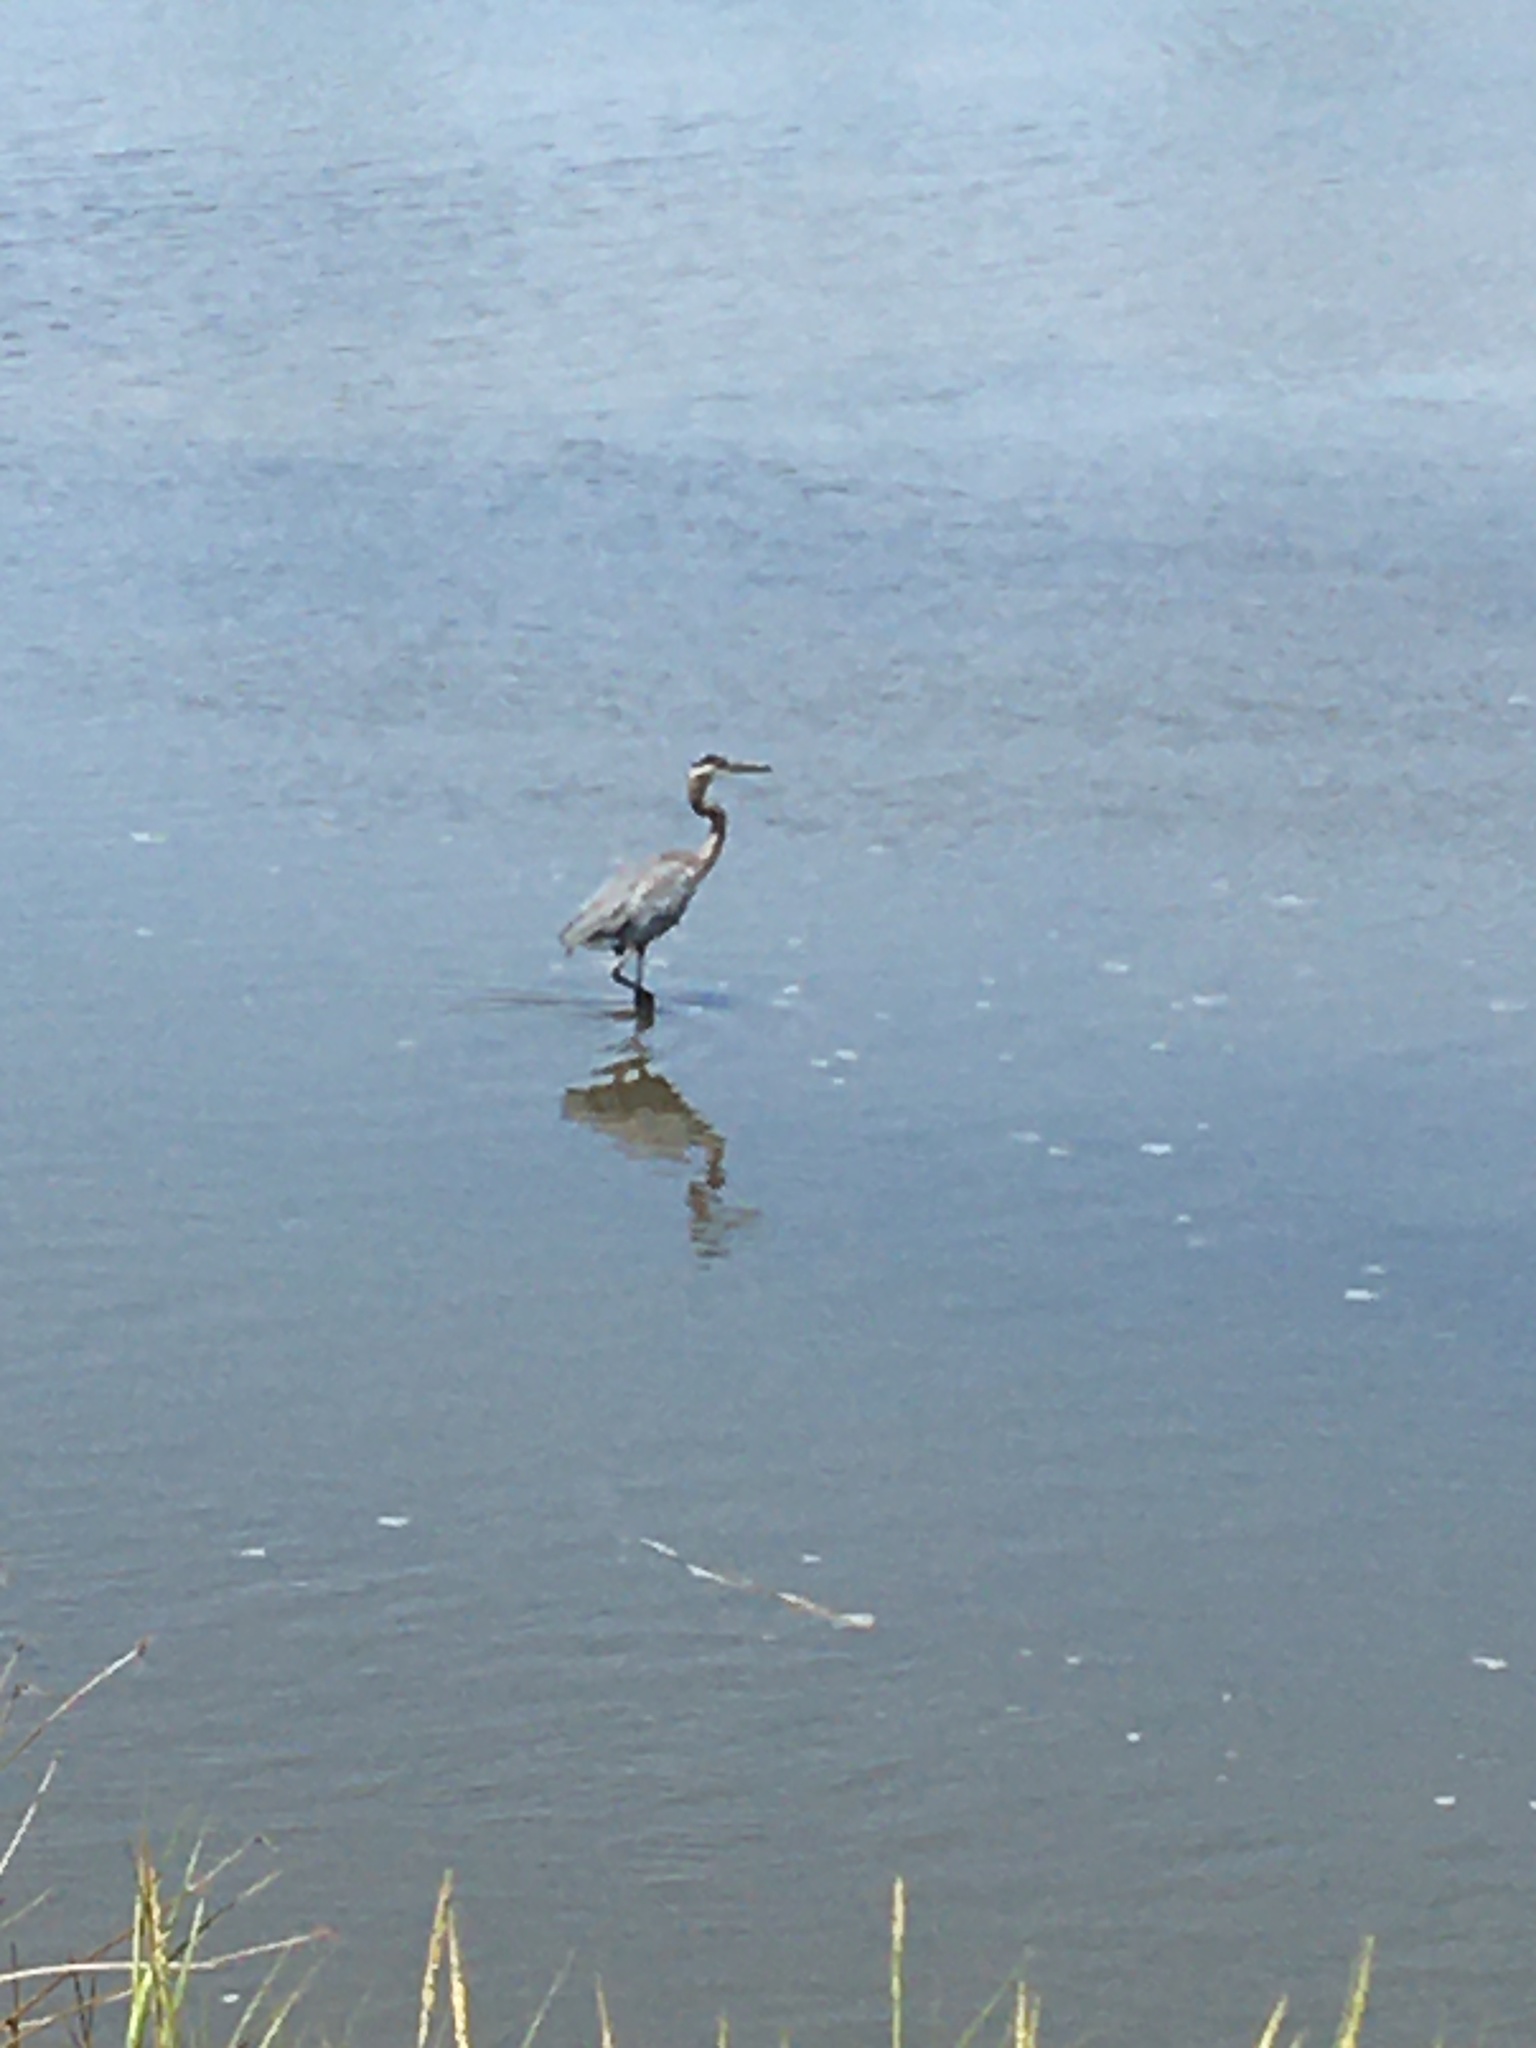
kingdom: Animalia
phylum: Chordata
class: Aves
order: Pelecaniformes
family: Ardeidae
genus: Ardea
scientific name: Ardea herodias
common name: Great blue heron
